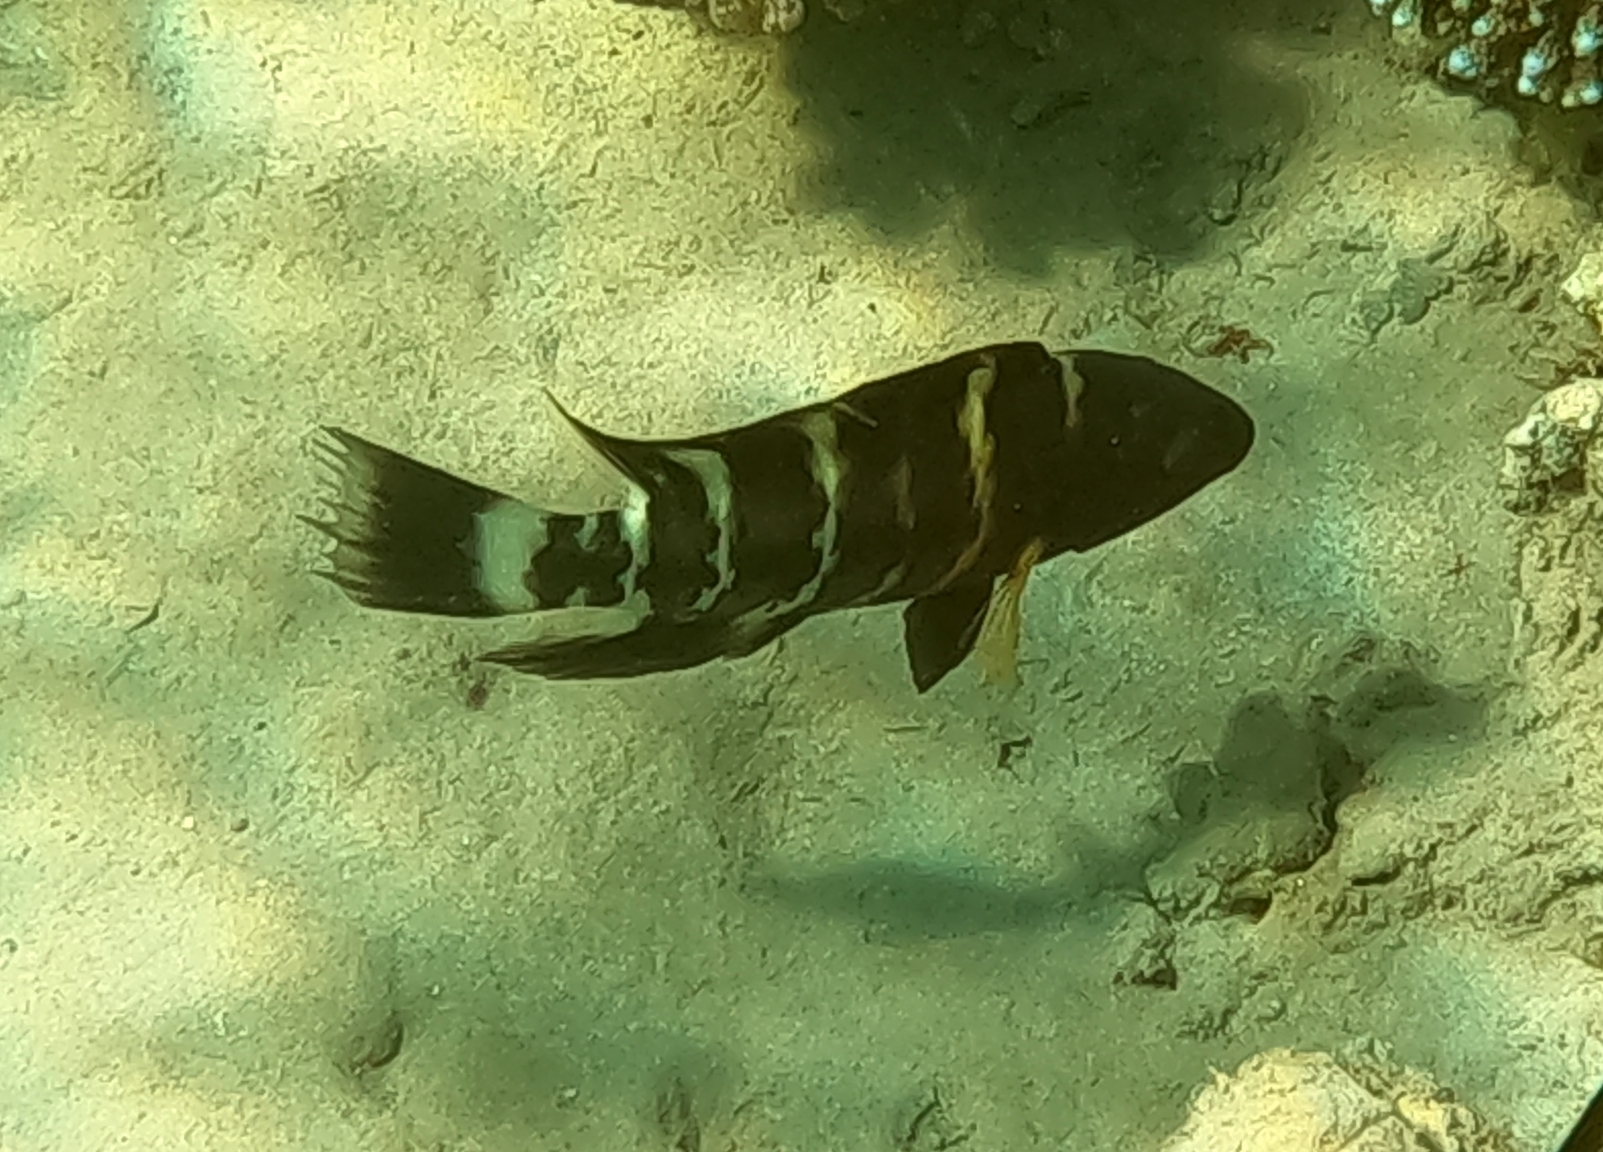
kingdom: Animalia
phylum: Chordata
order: Perciformes
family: Labridae
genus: Cheilinus
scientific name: Cheilinus fasciatus
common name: Red-breasted wrasse
